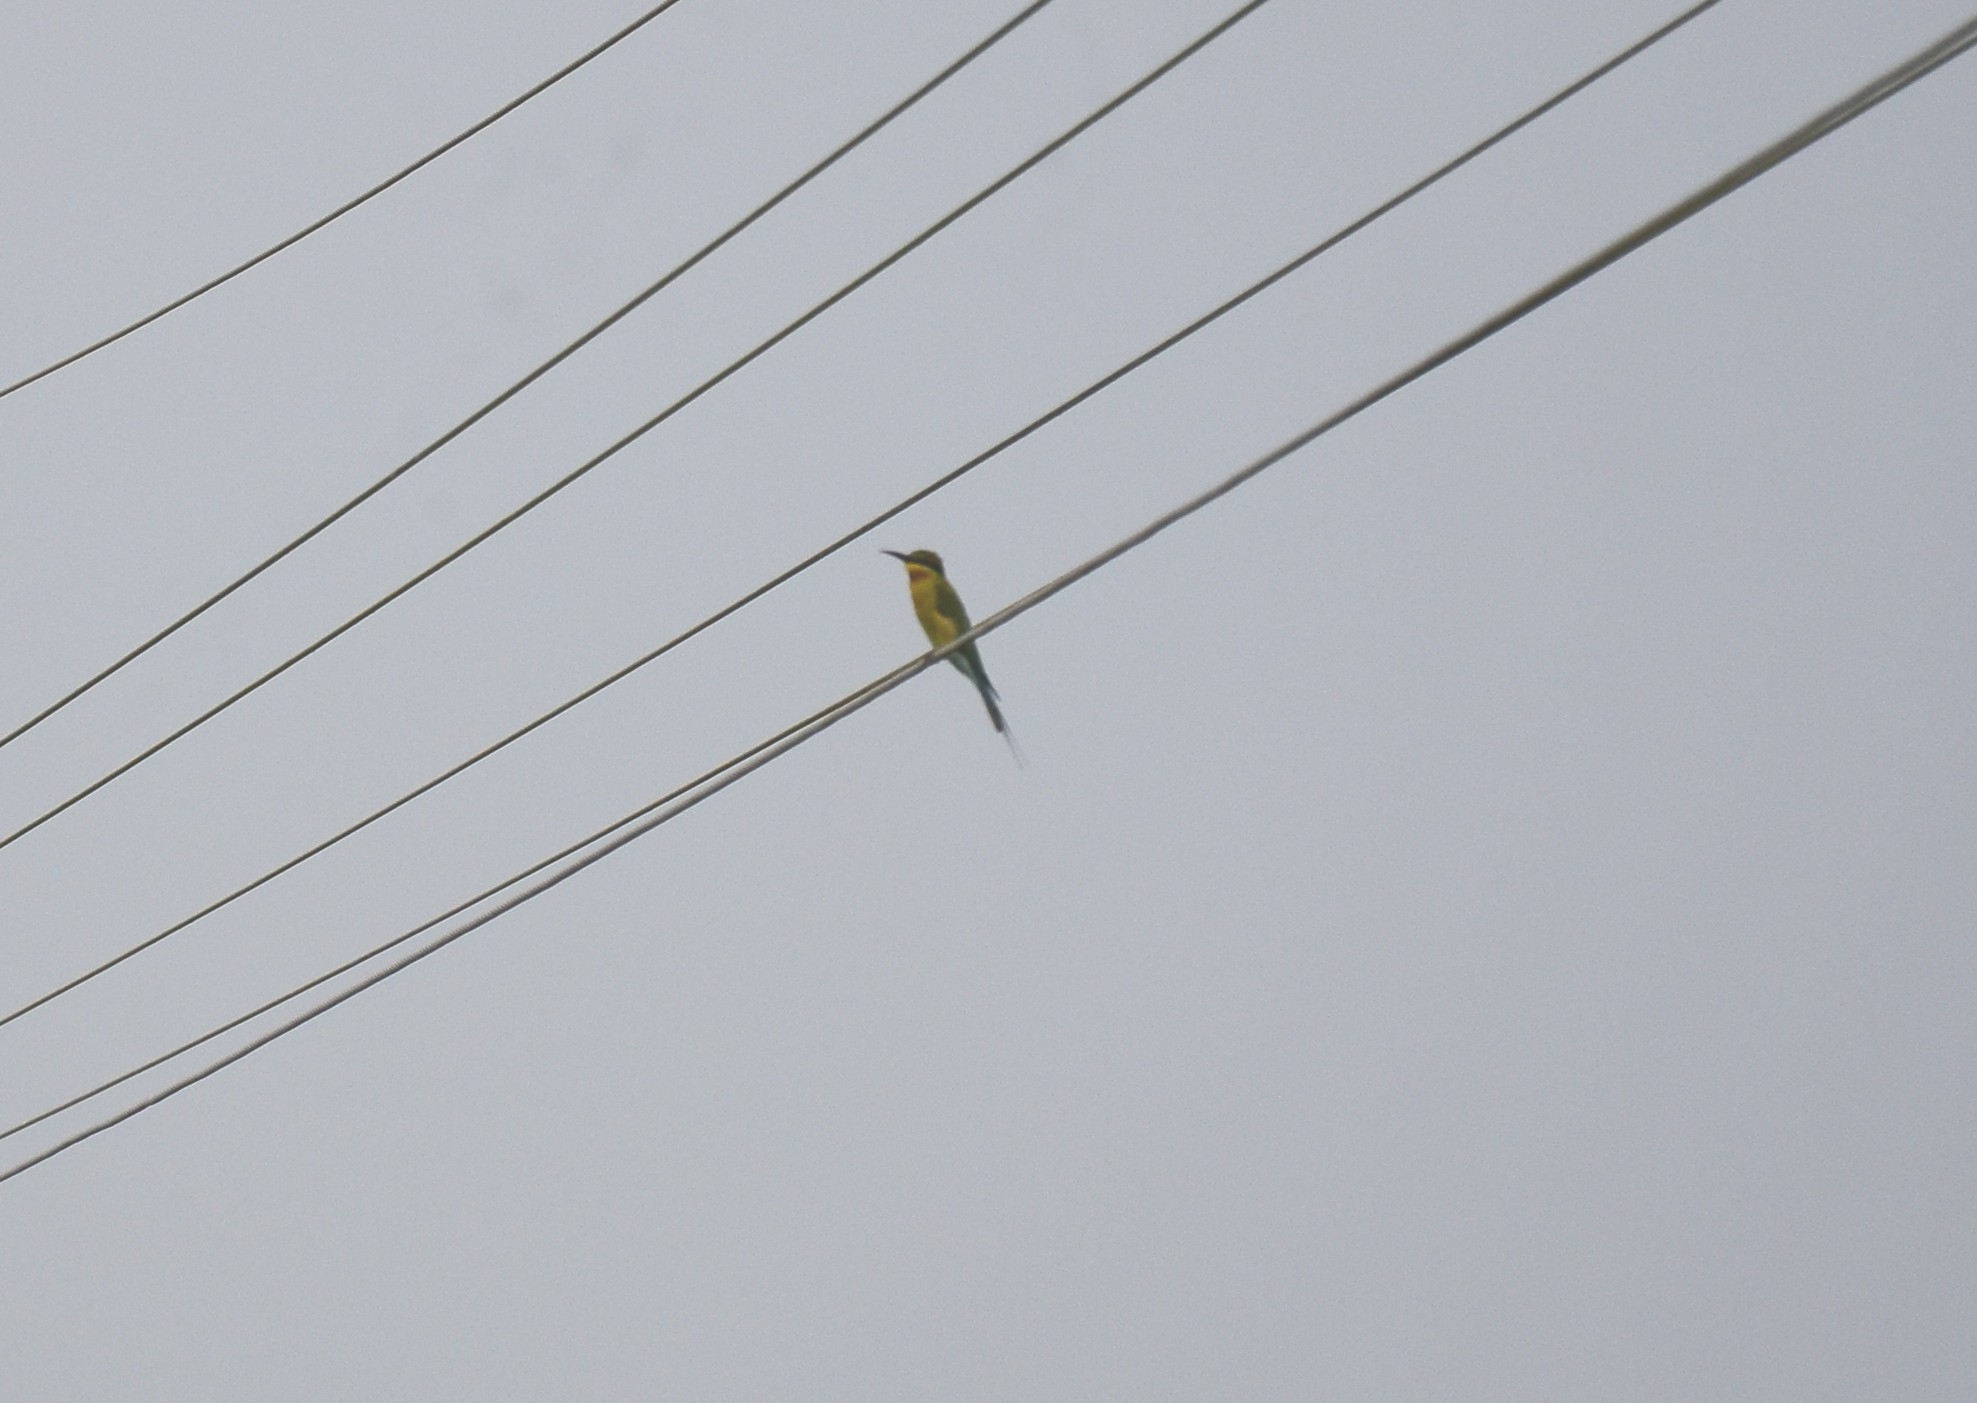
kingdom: Animalia
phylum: Chordata
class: Aves
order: Coraciiformes
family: Meropidae
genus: Merops
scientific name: Merops philippinus
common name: Blue-tailed bee-eater
